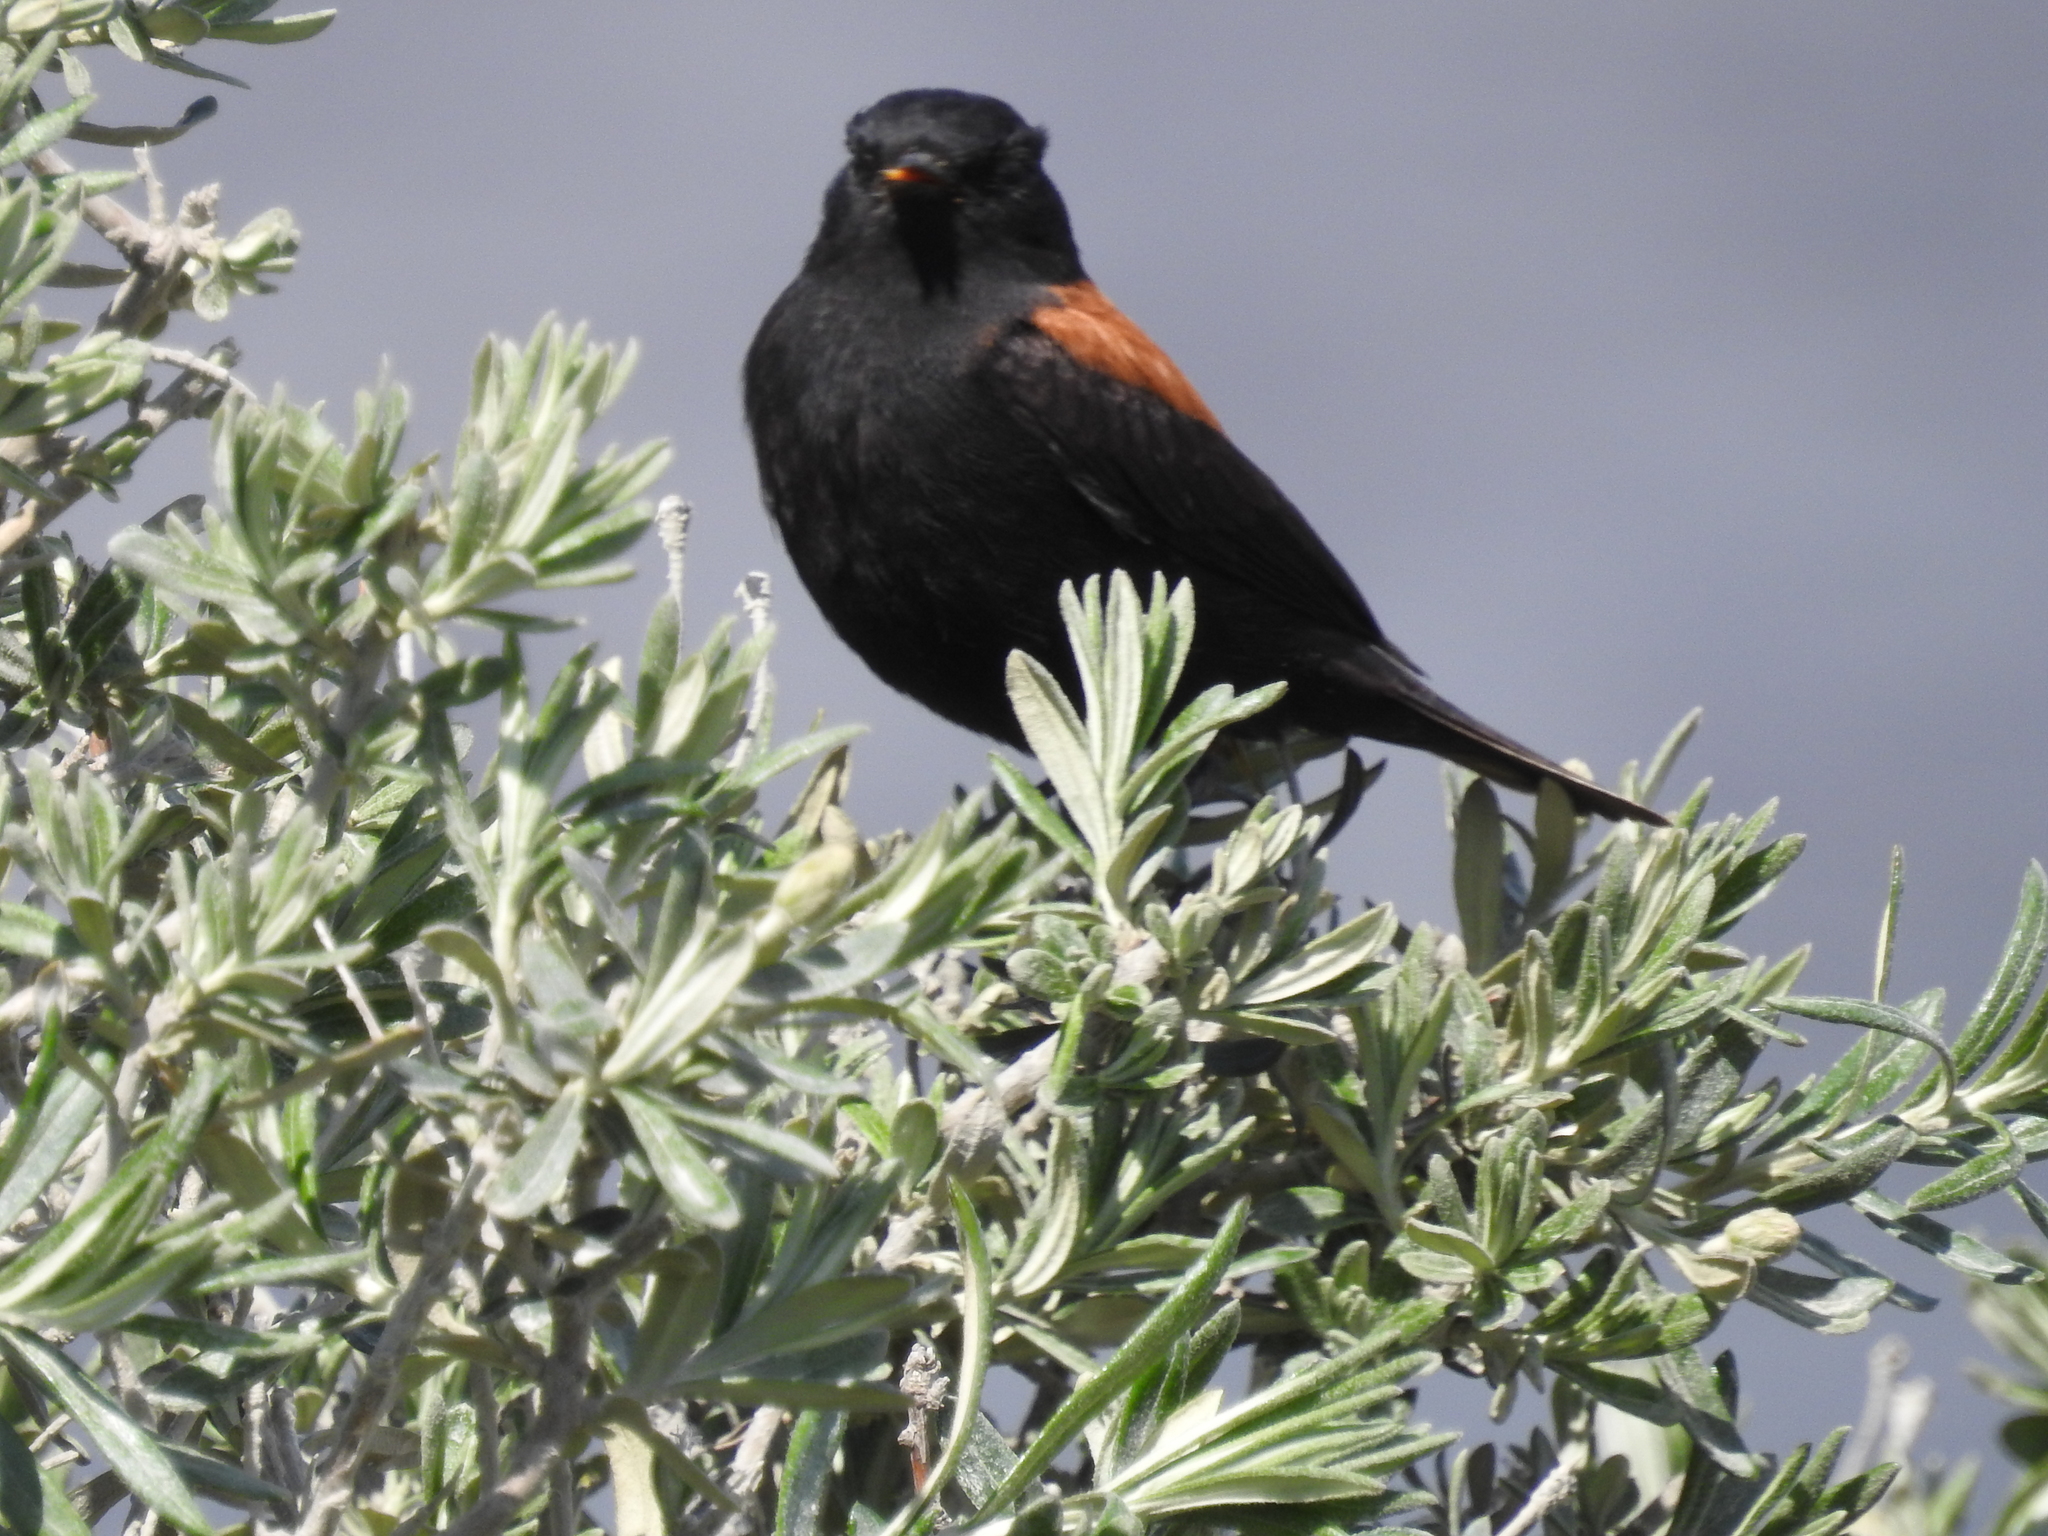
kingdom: Animalia
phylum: Chordata
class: Aves
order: Passeriformes
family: Tyrannidae
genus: Lessonia
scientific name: Lessonia rufa
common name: Austral negrito
